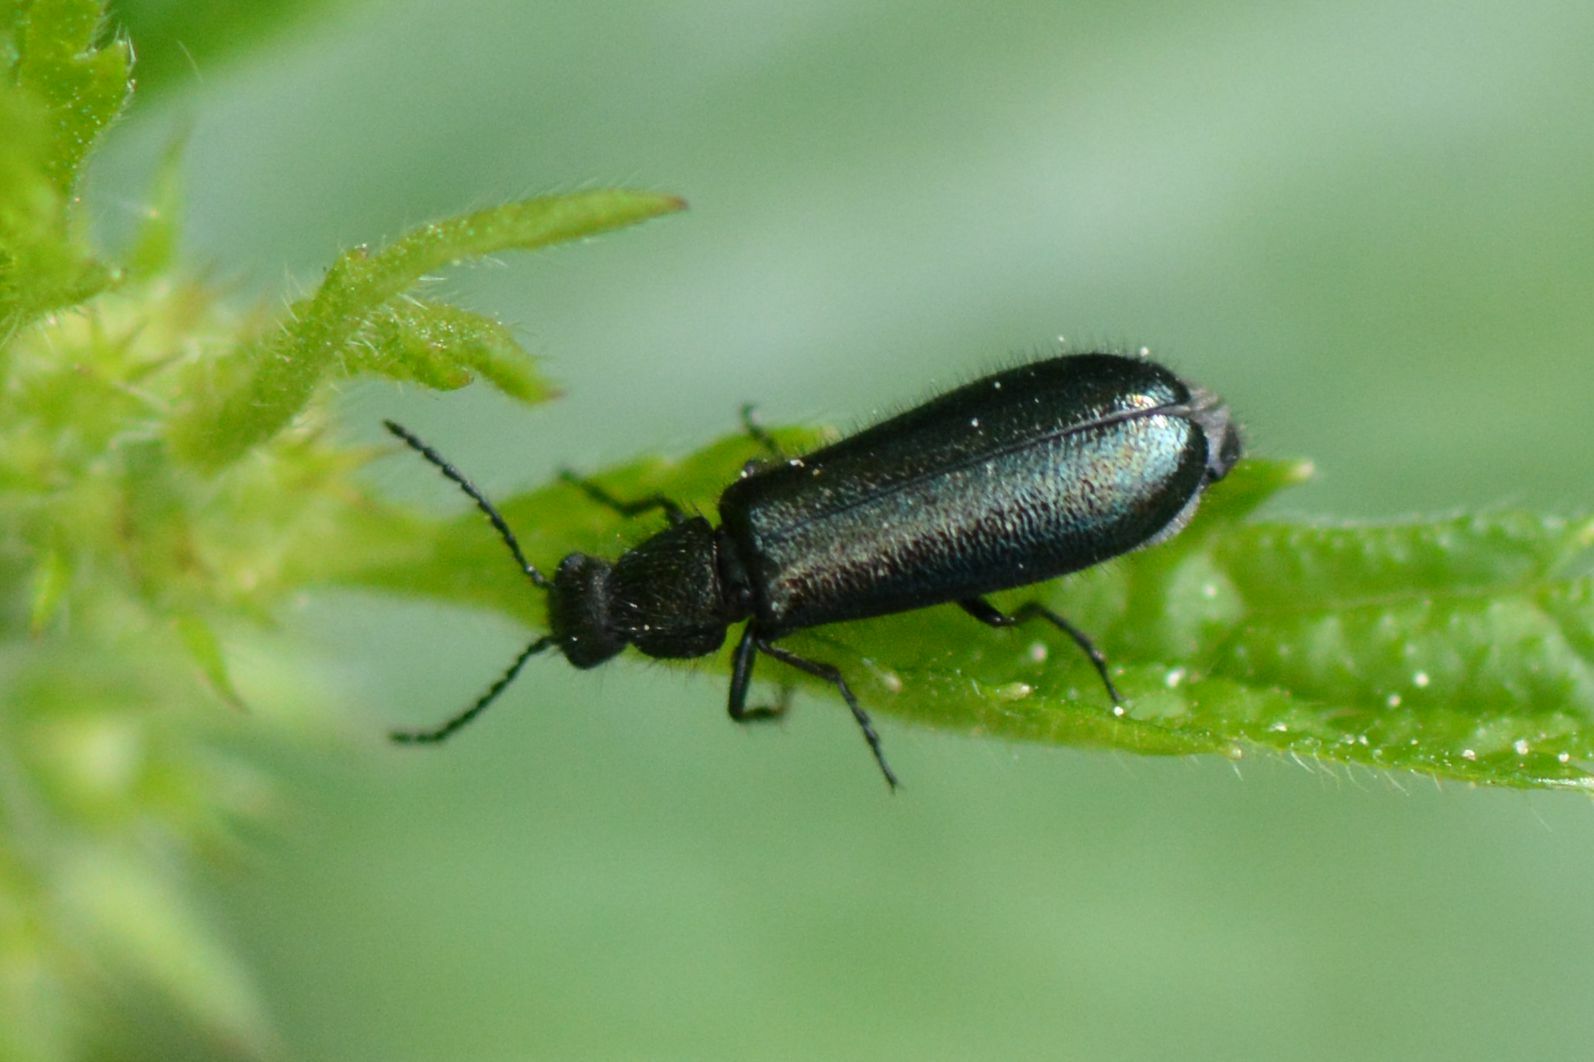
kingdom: Animalia
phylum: Arthropoda
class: Insecta
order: Coleoptera
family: Melyridae
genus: Dasytes
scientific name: Dasytes caeruleus
